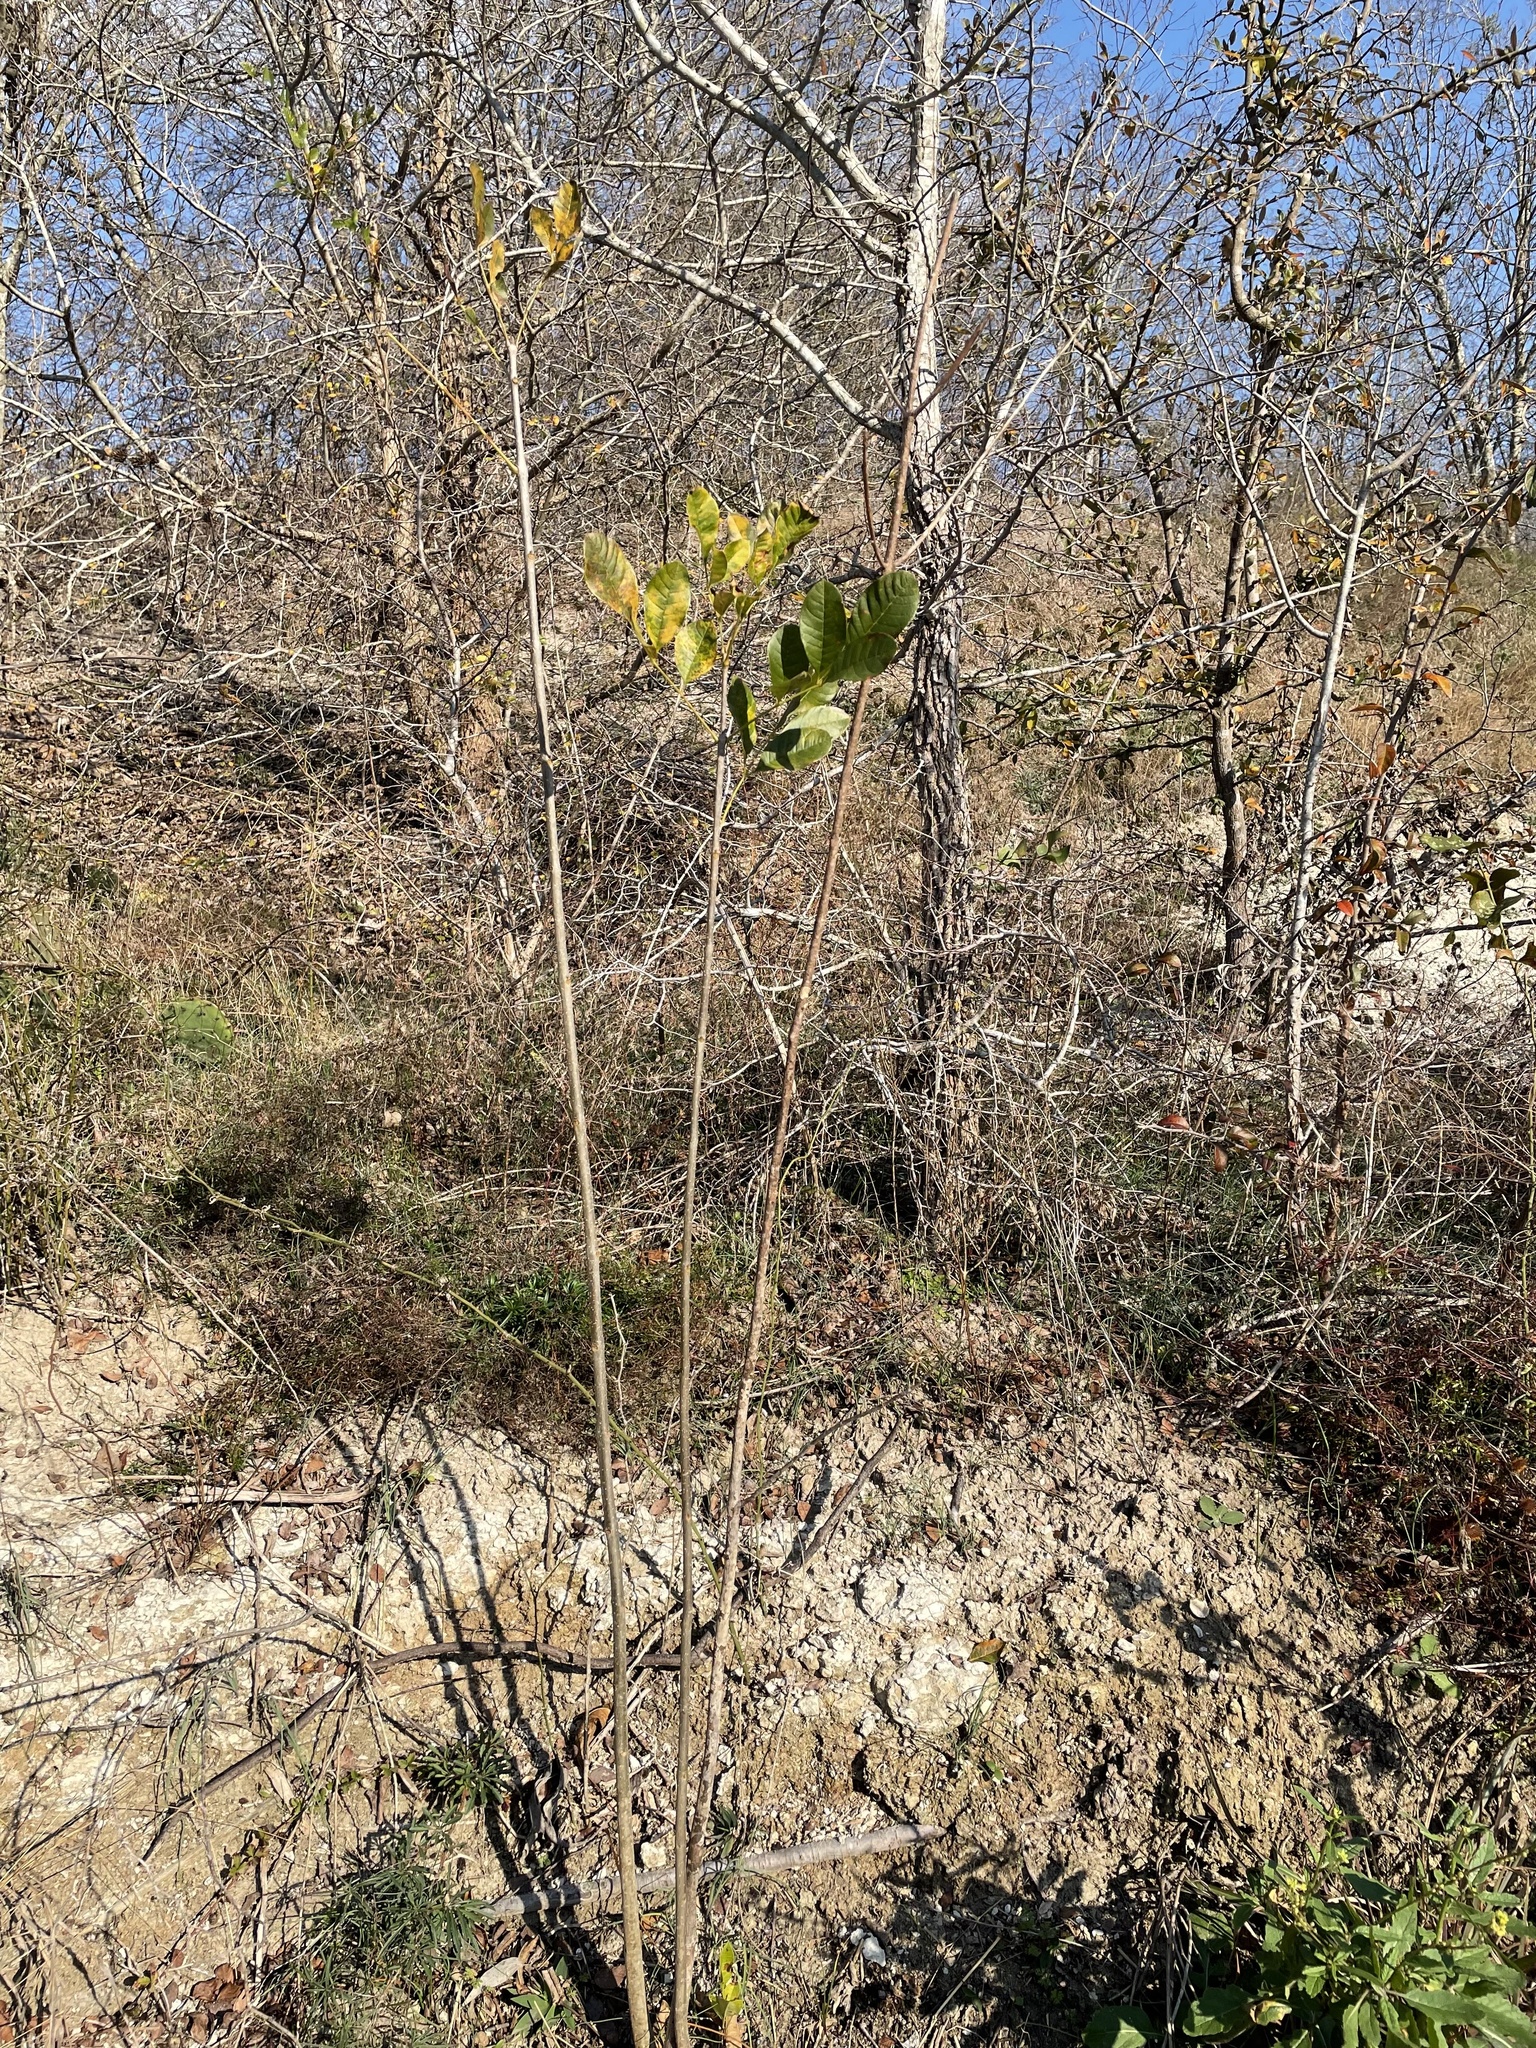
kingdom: Plantae
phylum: Tracheophyta
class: Magnoliopsida
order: Lamiales
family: Oleaceae
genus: Fraxinus
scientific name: Fraxinus pennsylvanica
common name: Green ash
